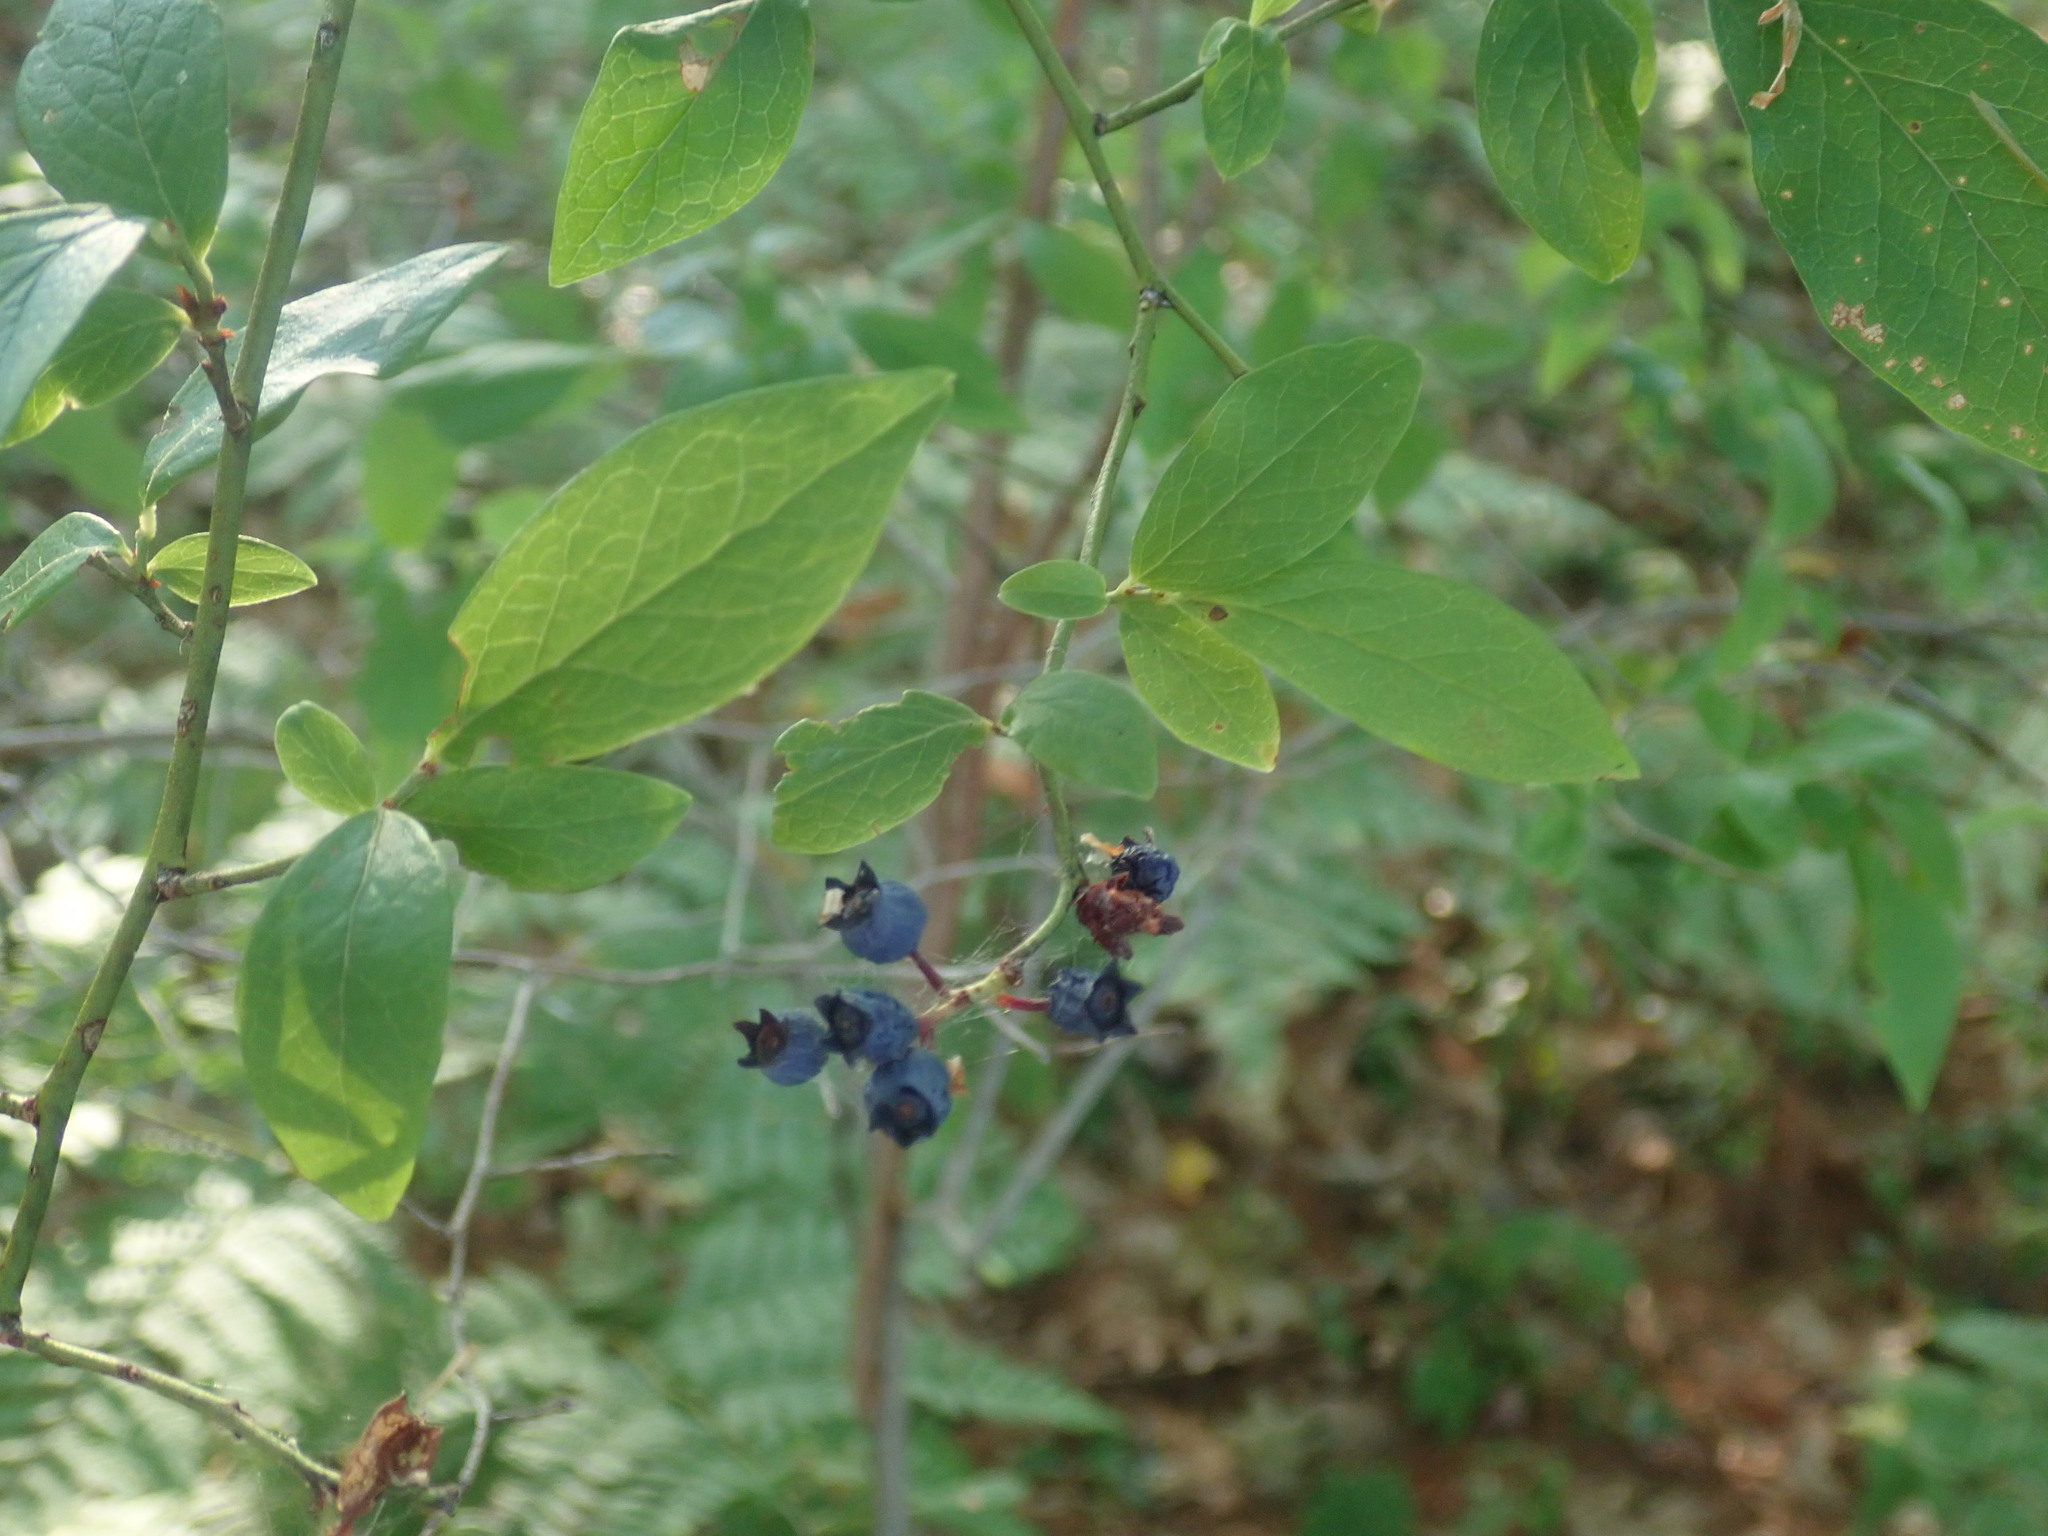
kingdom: Plantae
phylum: Tracheophyta
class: Magnoliopsida
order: Ericales
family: Ericaceae
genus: Vaccinium
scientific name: Vaccinium corymbosum
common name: Blueberry
